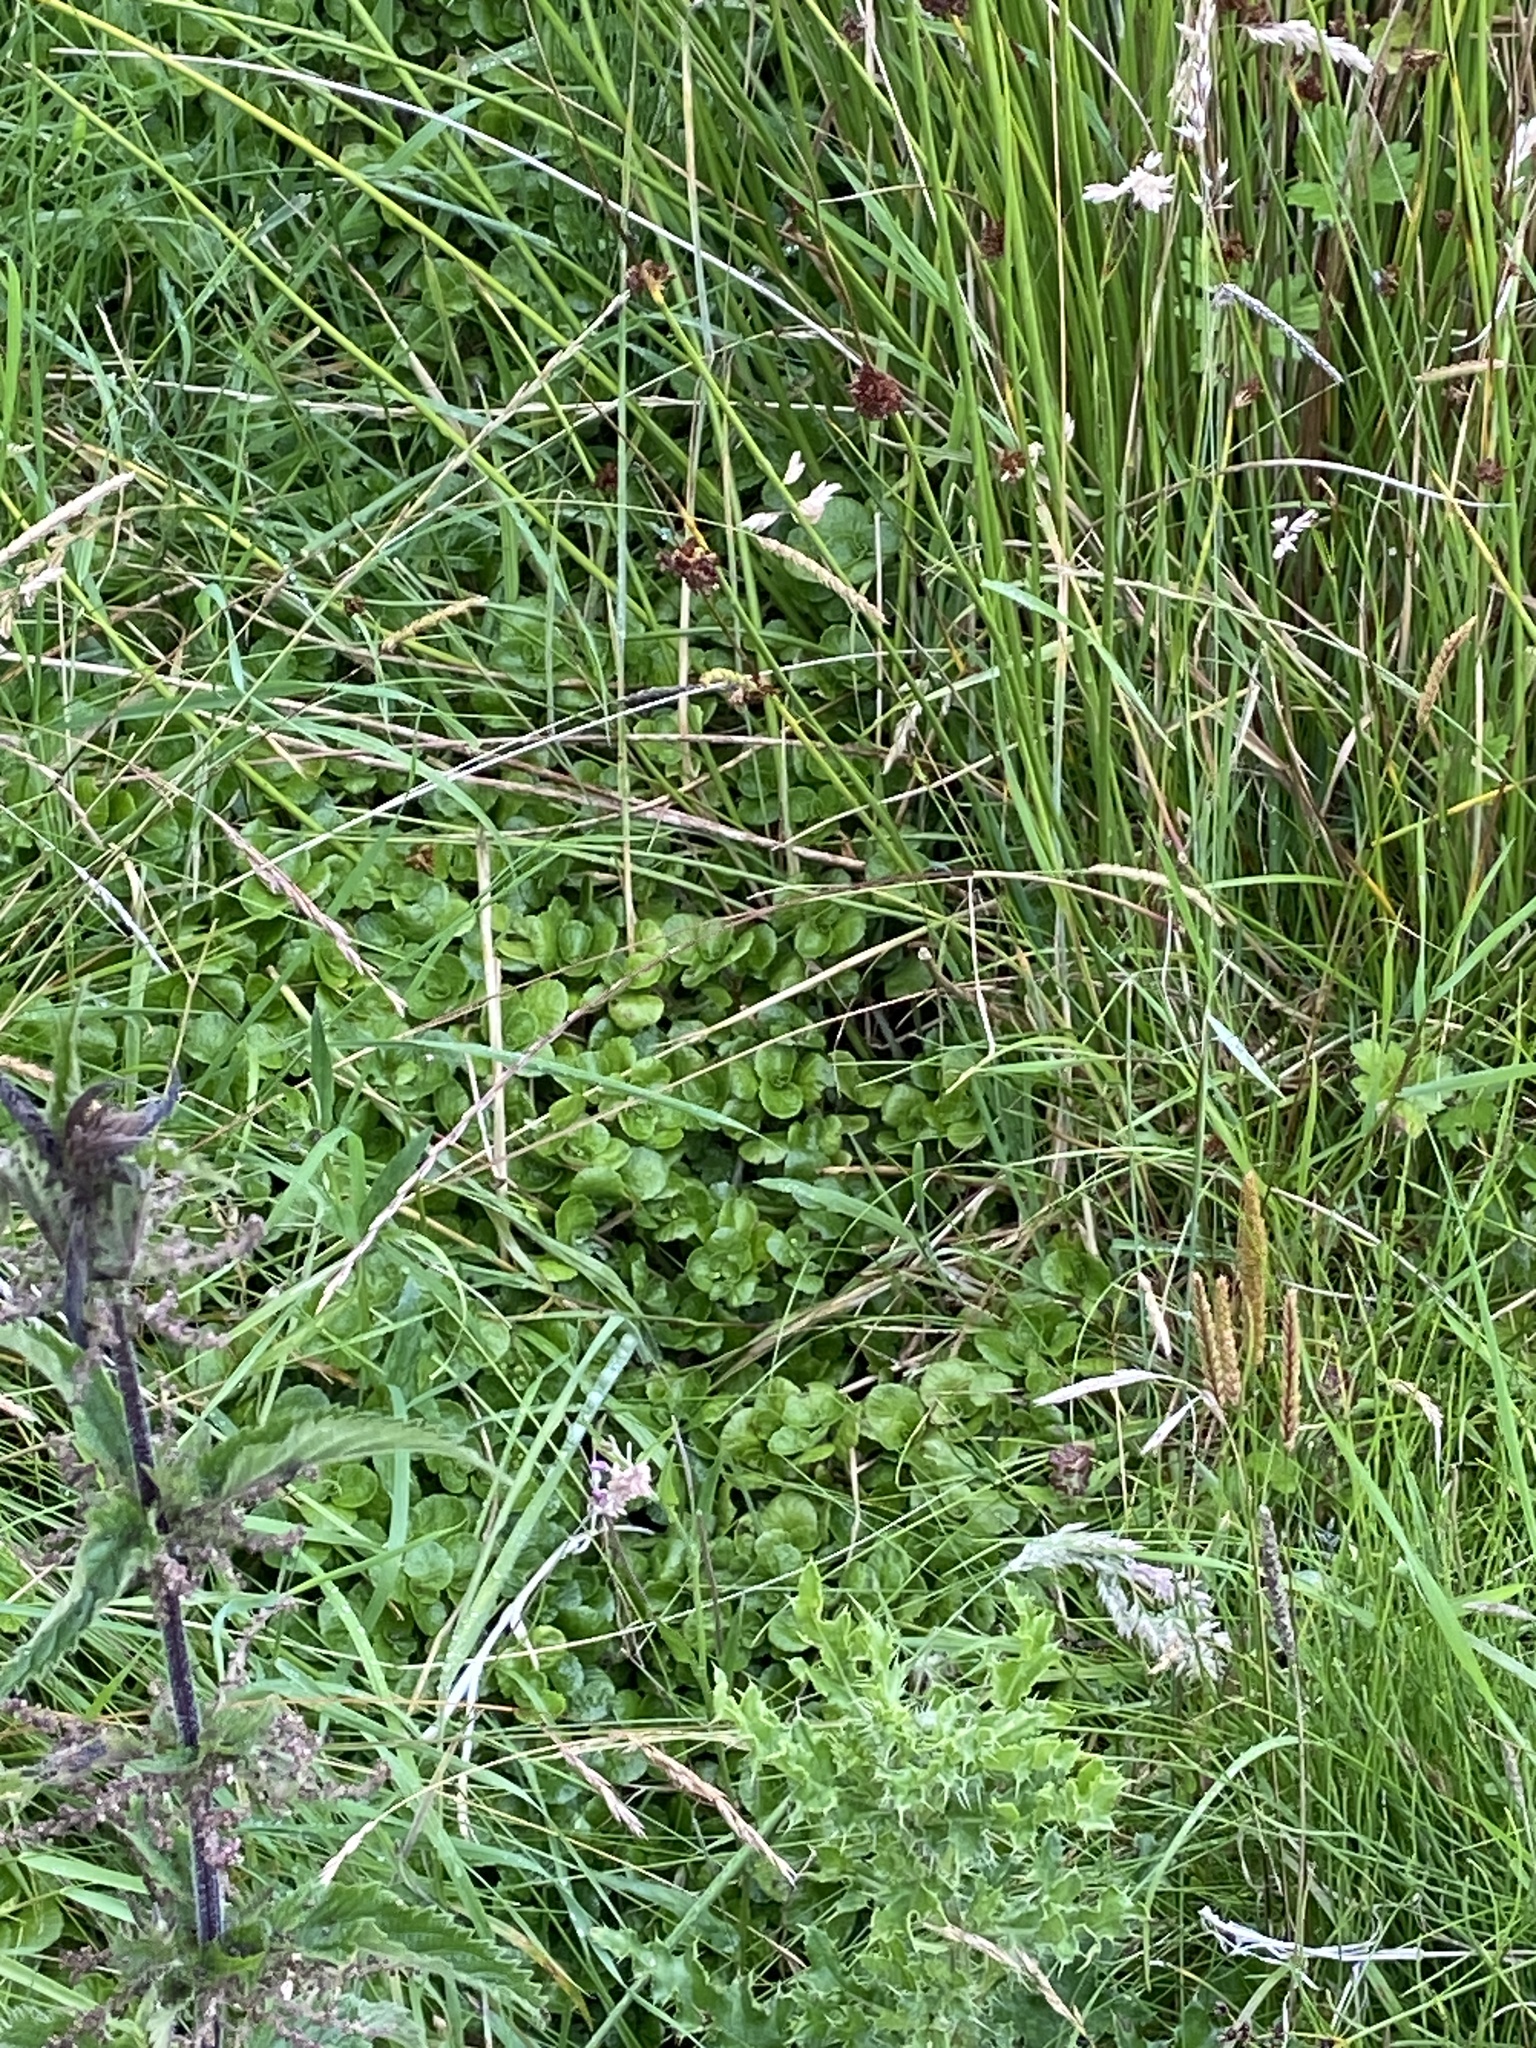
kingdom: Plantae
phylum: Tracheophyta
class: Magnoliopsida
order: Lamiales
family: Plantaginaceae
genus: Veronica
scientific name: Veronica beccabunga
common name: Brooklime
